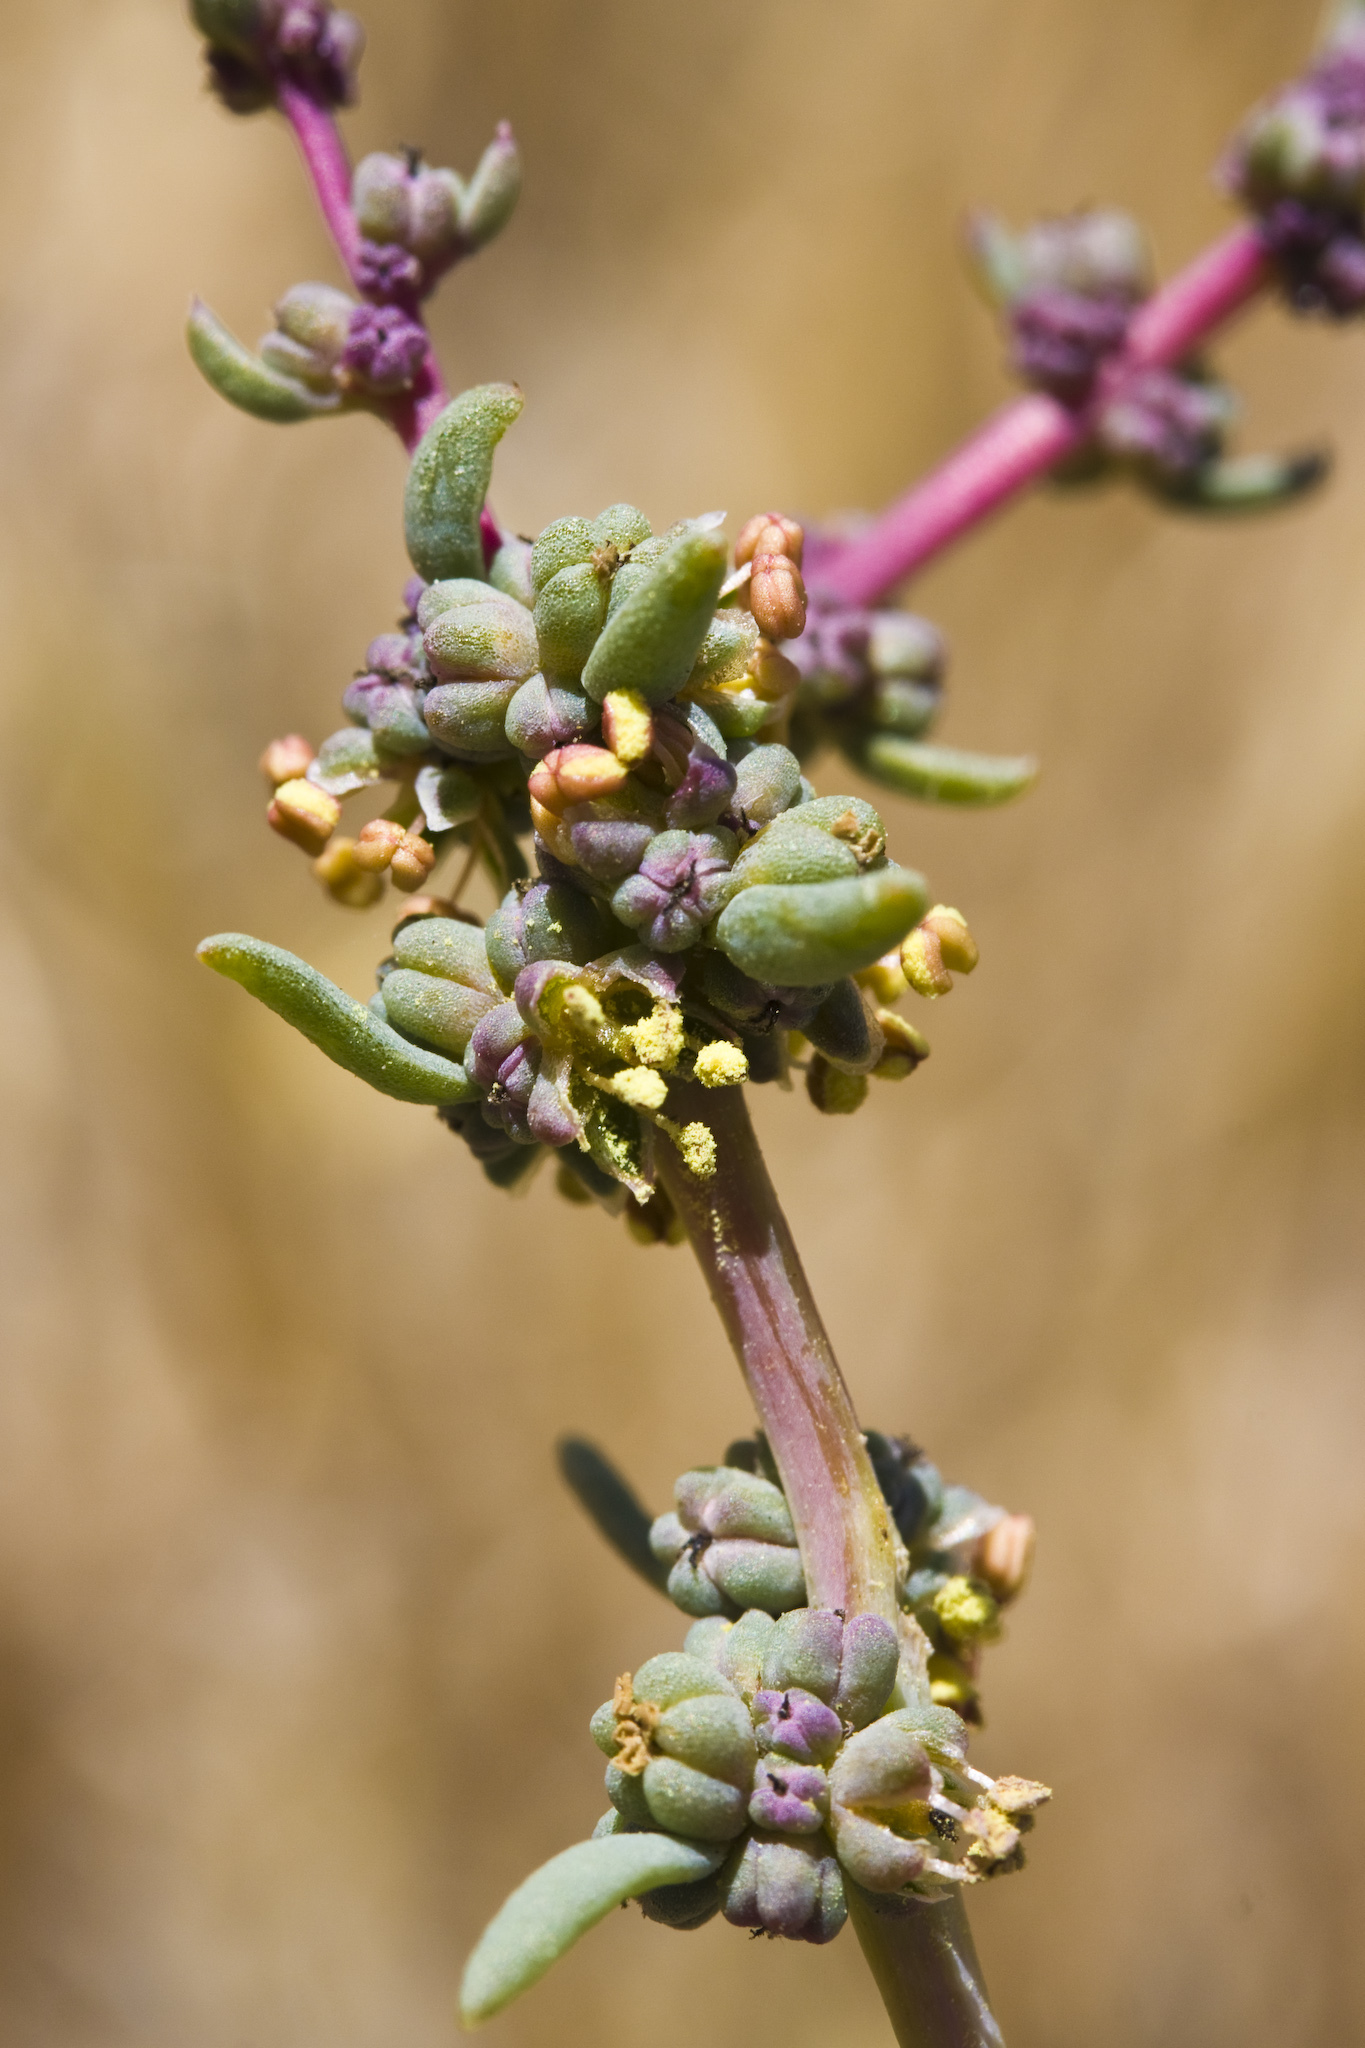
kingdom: Plantae
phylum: Tracheophyta
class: Magnoliopsida
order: Caryophyllales
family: Amaranthaceae
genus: Suaeda
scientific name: Suaeda nigra
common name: Bush seepweed
